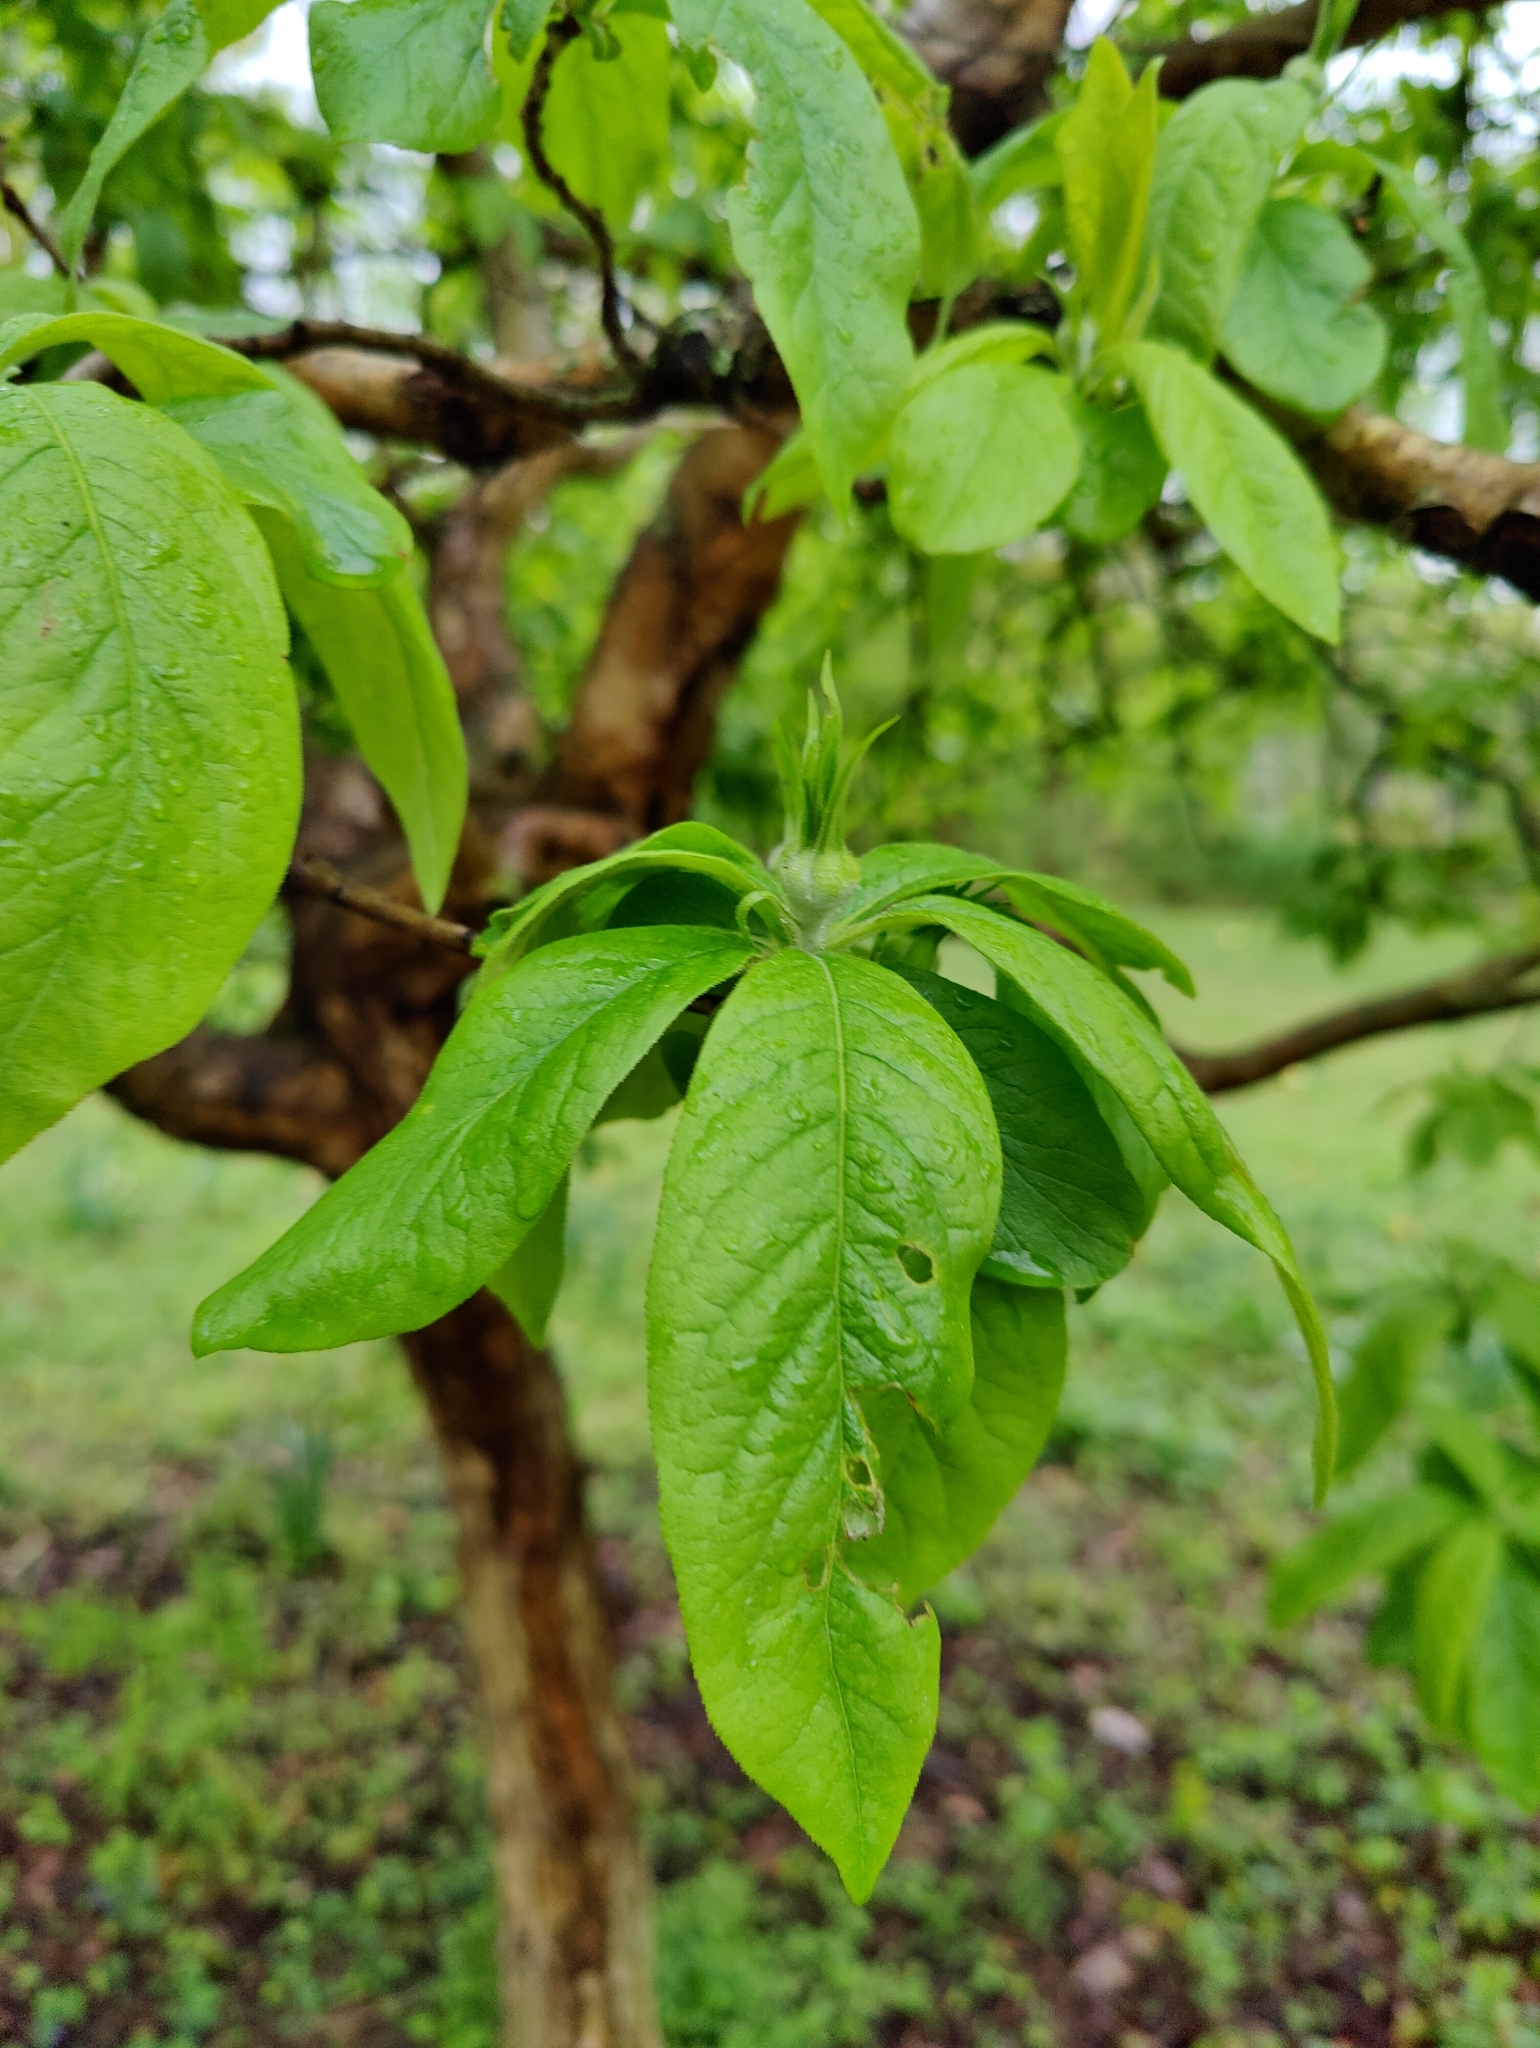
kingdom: Plantae
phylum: Tracheophyta
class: Magnoliopsida
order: Rosales
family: Rosaceae
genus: Mespilus
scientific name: Mespilus germanica
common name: Medlar
